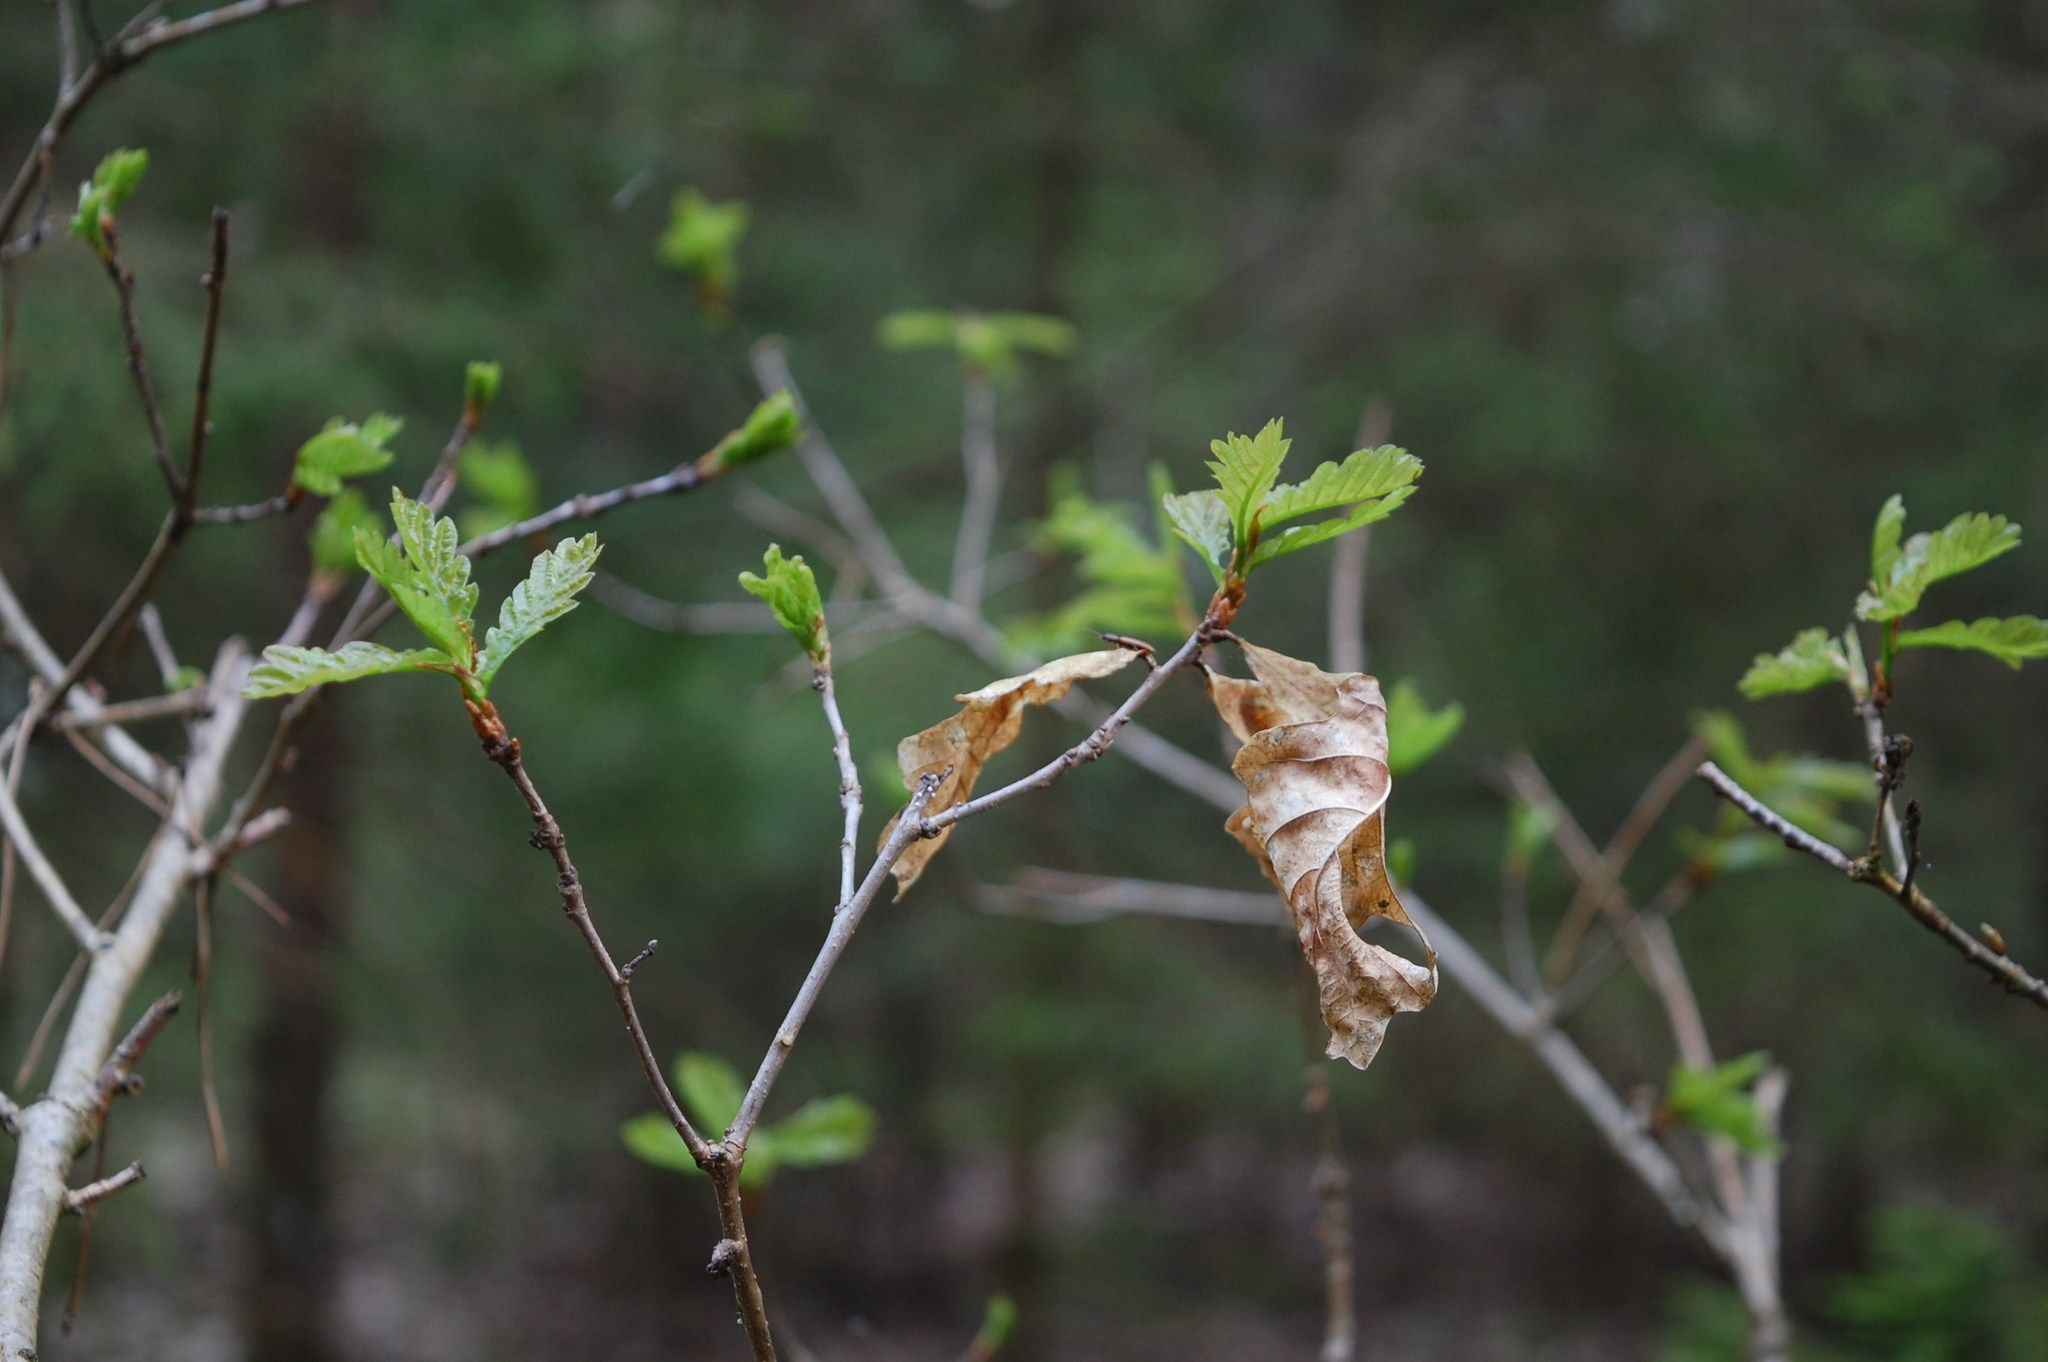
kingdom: Plantae
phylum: Tracheophyta
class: Magnoliopsida
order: Fagales
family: Fagaceae
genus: Quercus
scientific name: Quercus robur
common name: Pedunculate oak
